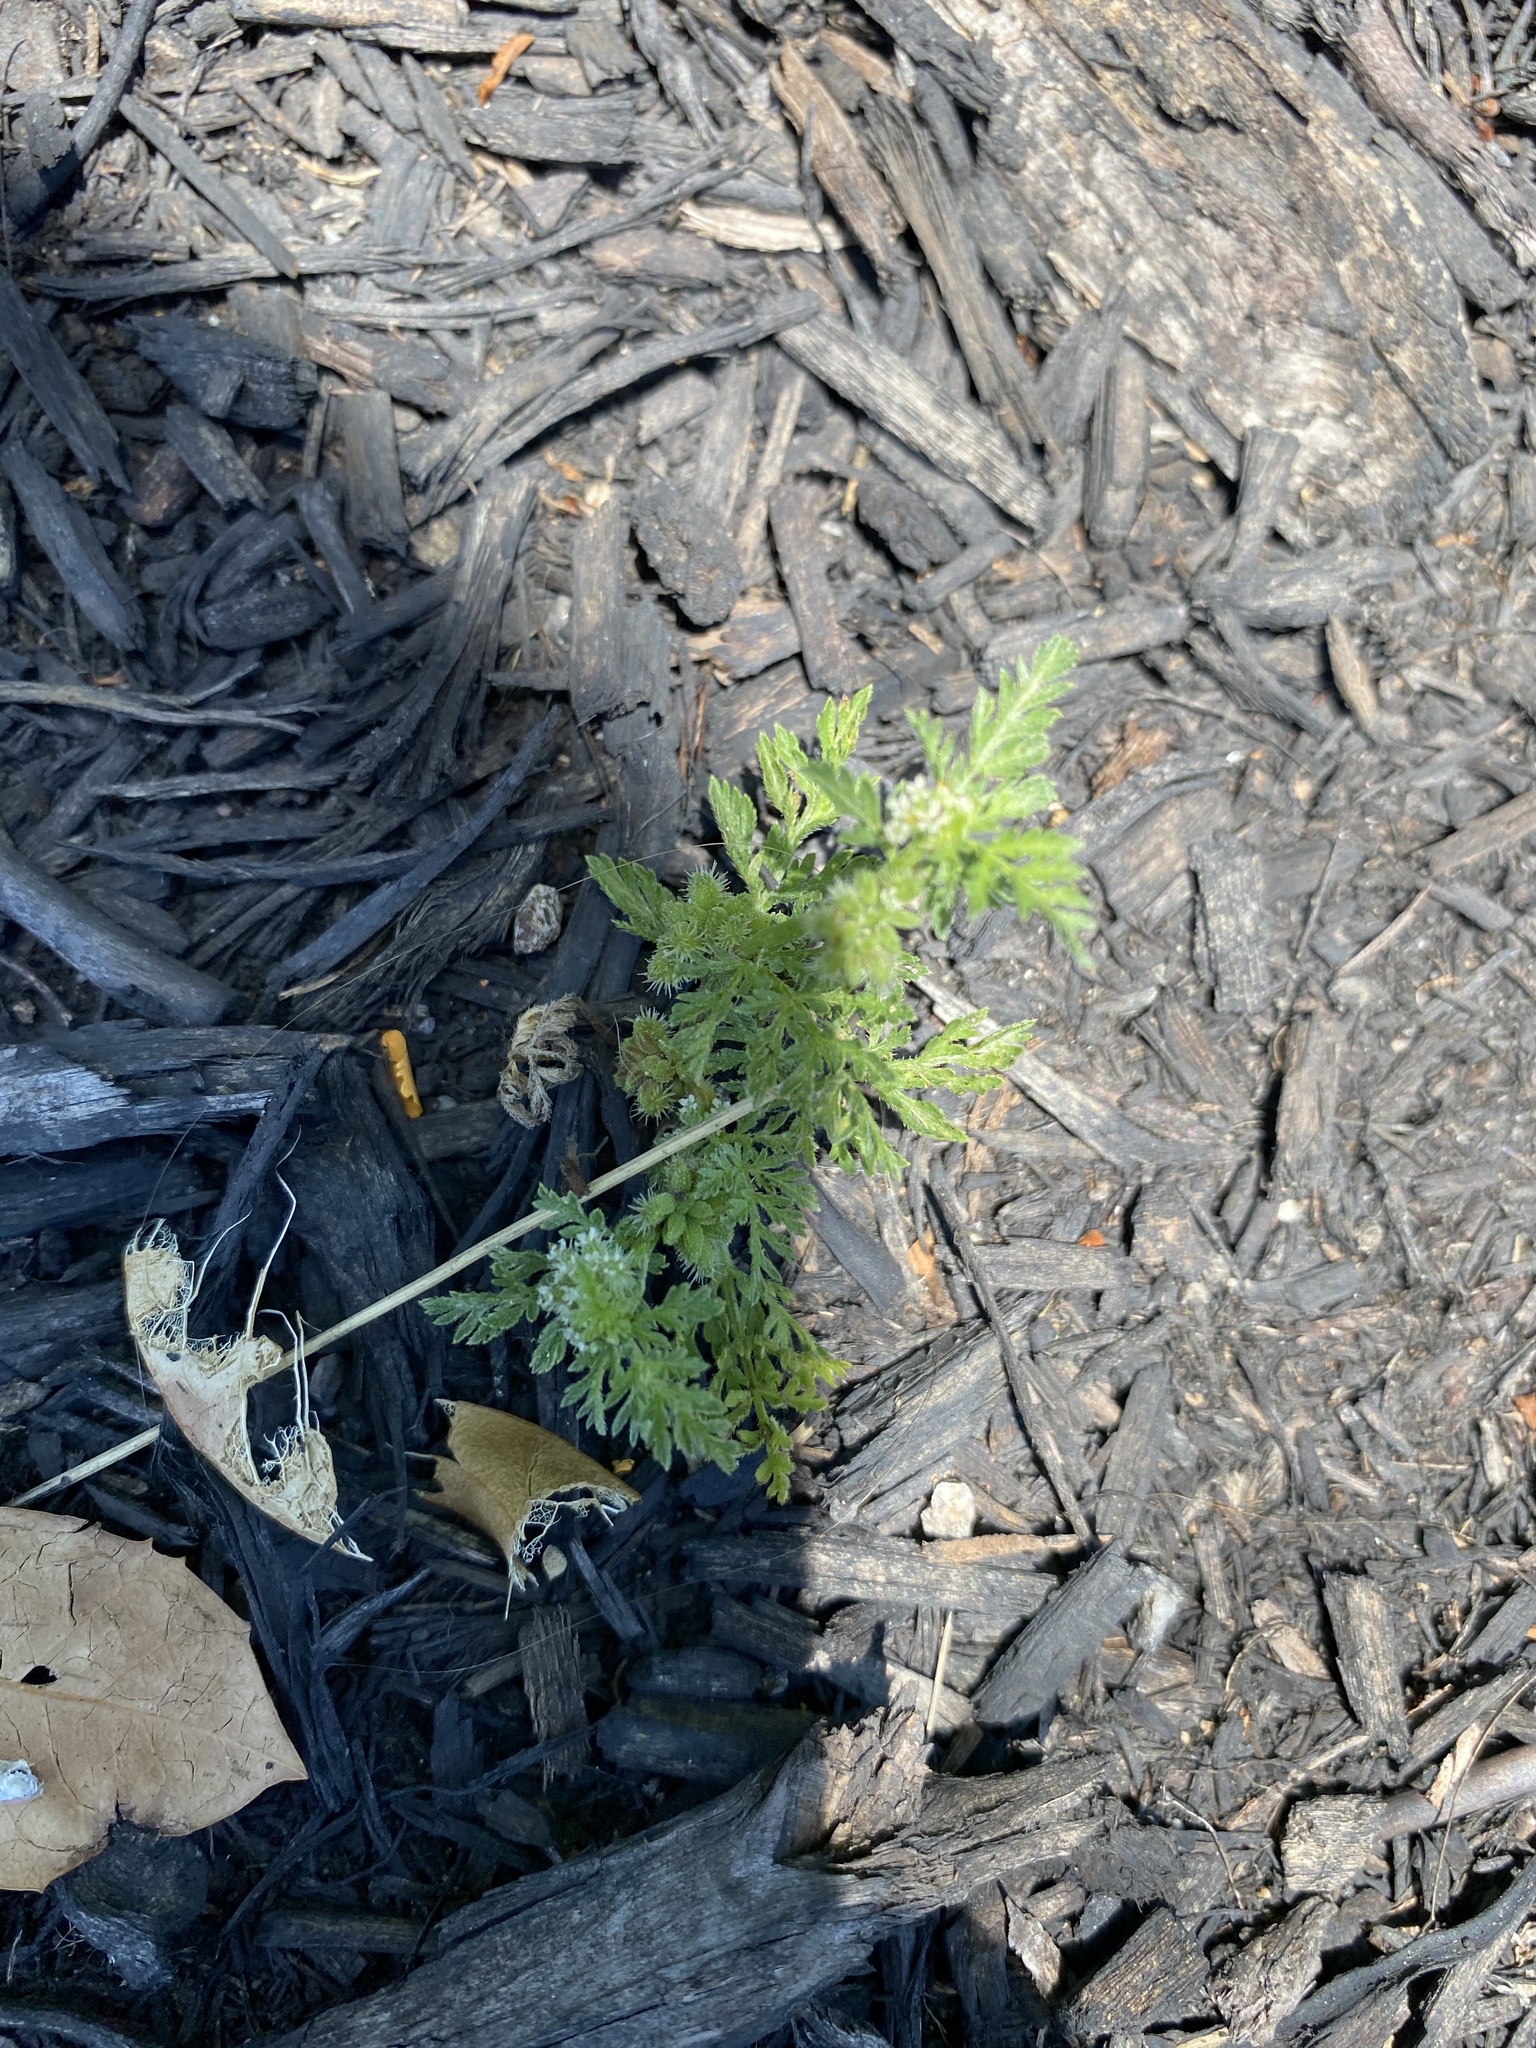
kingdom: Plantae
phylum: Tracheophyta
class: Magnoliopsida
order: Apiales
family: Apiaceae
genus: Torilis
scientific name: Torilis nodosa
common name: Knotted hedge-parsley
